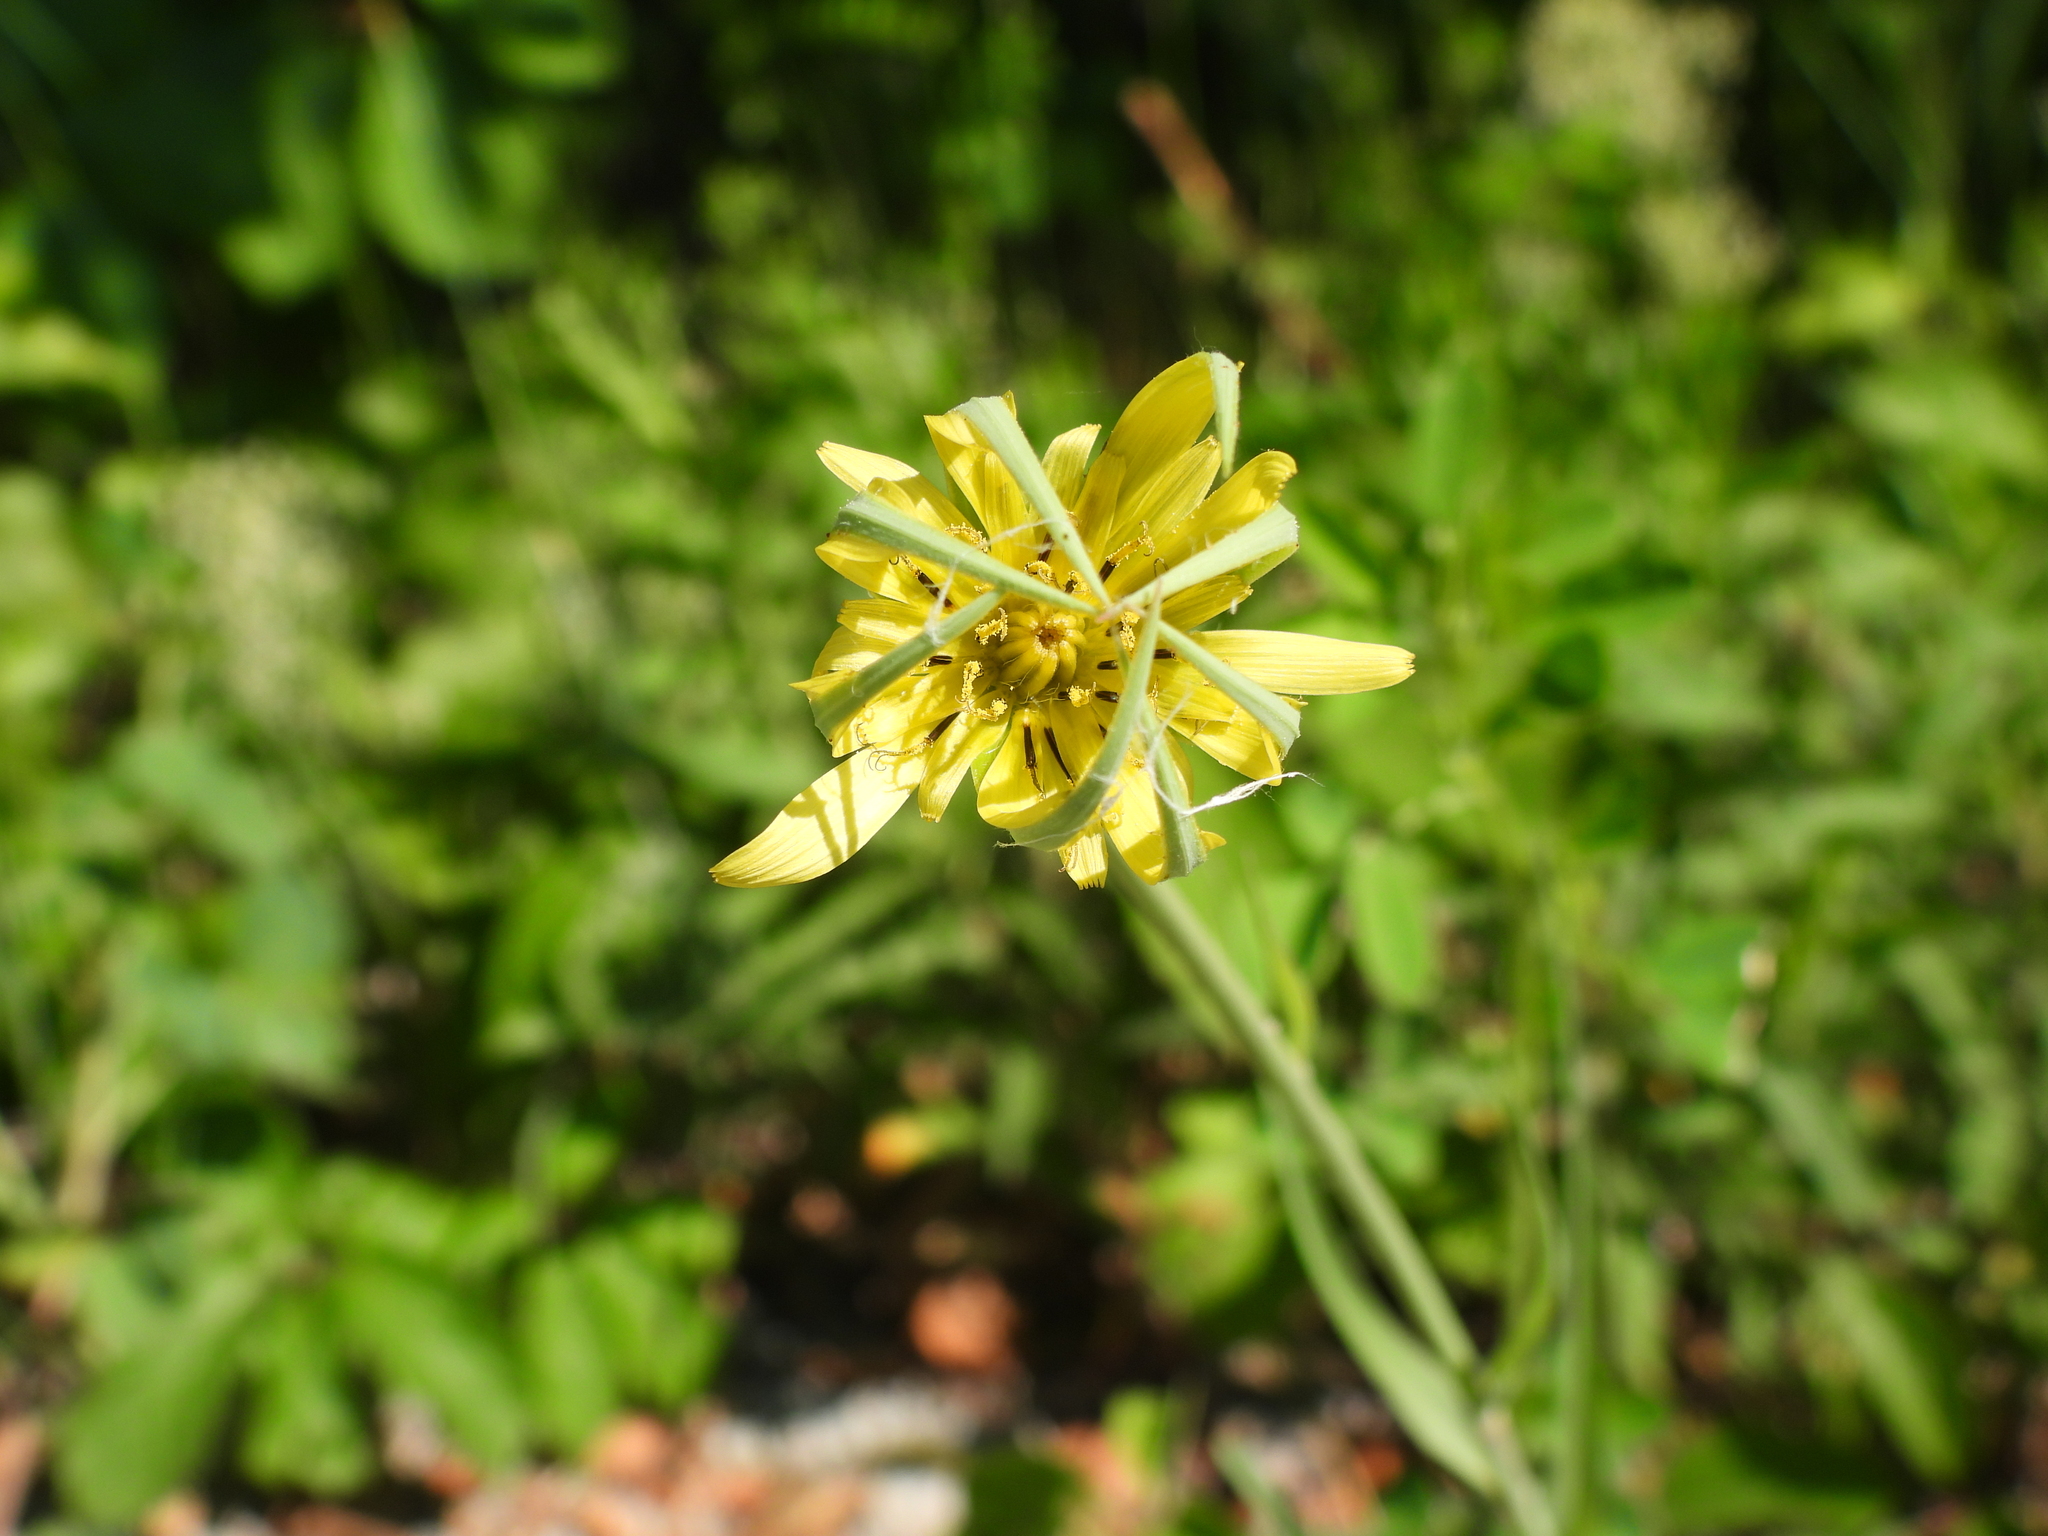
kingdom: Plantae
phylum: Tracheophyta
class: Magnoliopsida
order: Asterales
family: Asteraceae
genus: Tragopogon
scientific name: Tragopogon dubius
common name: Yellow salsify
